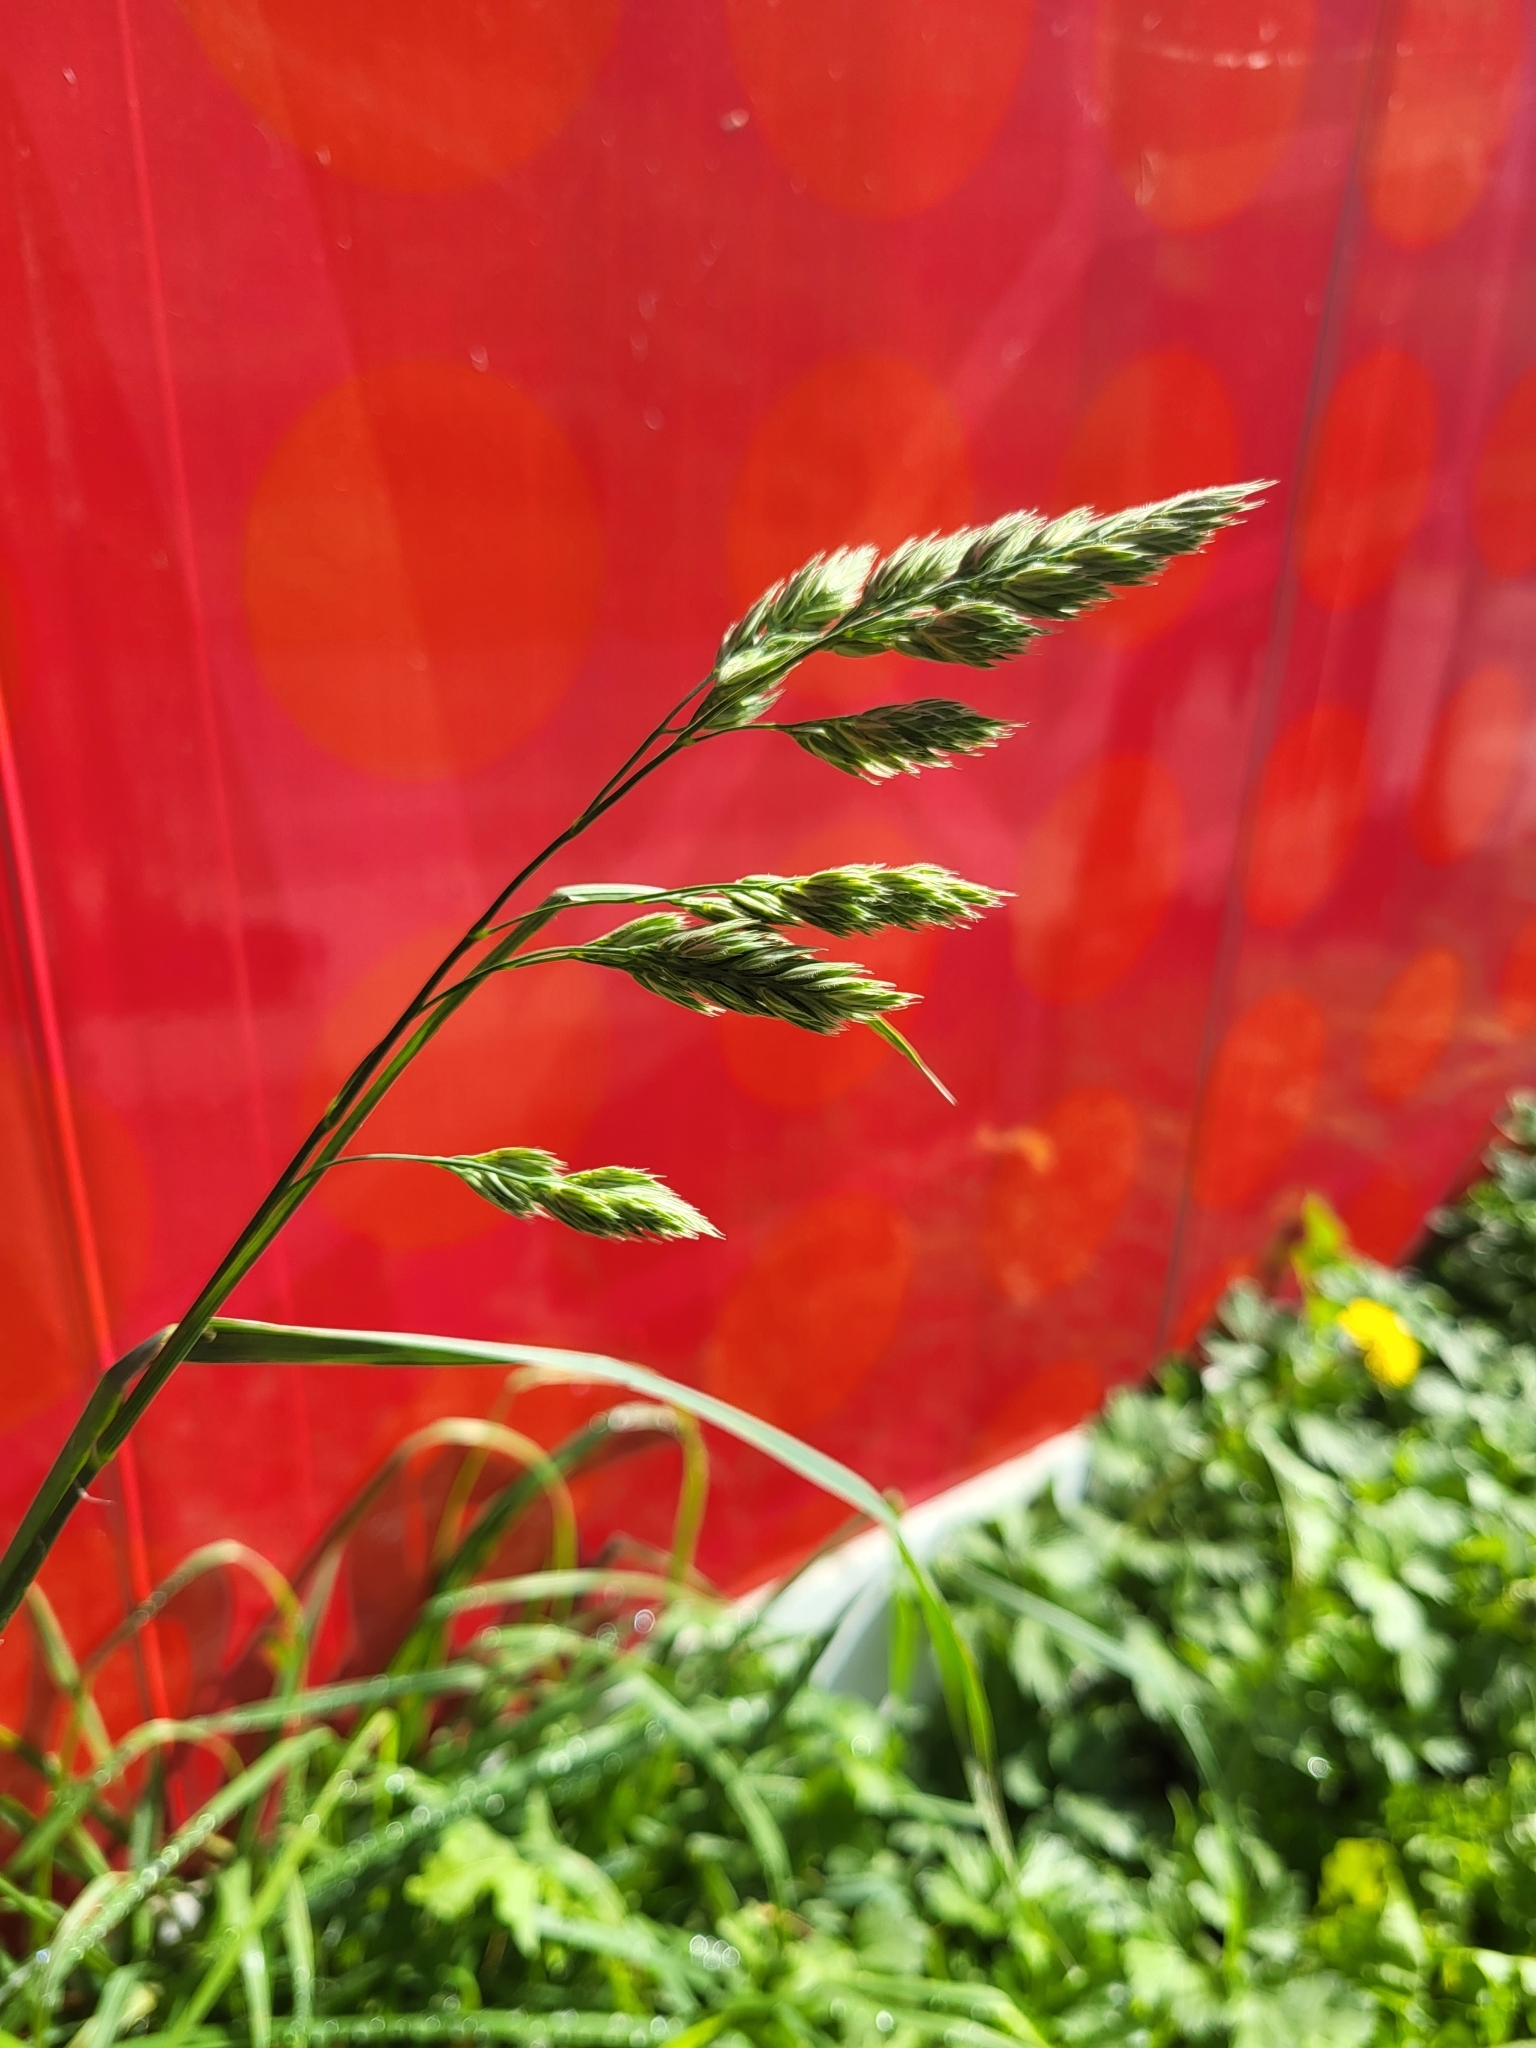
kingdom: Plantae
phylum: Tracheophyta
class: Liliopsida
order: Poales
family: Poaceae
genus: Dactylis
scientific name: Dactylis glomerata
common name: Orchardgrass
